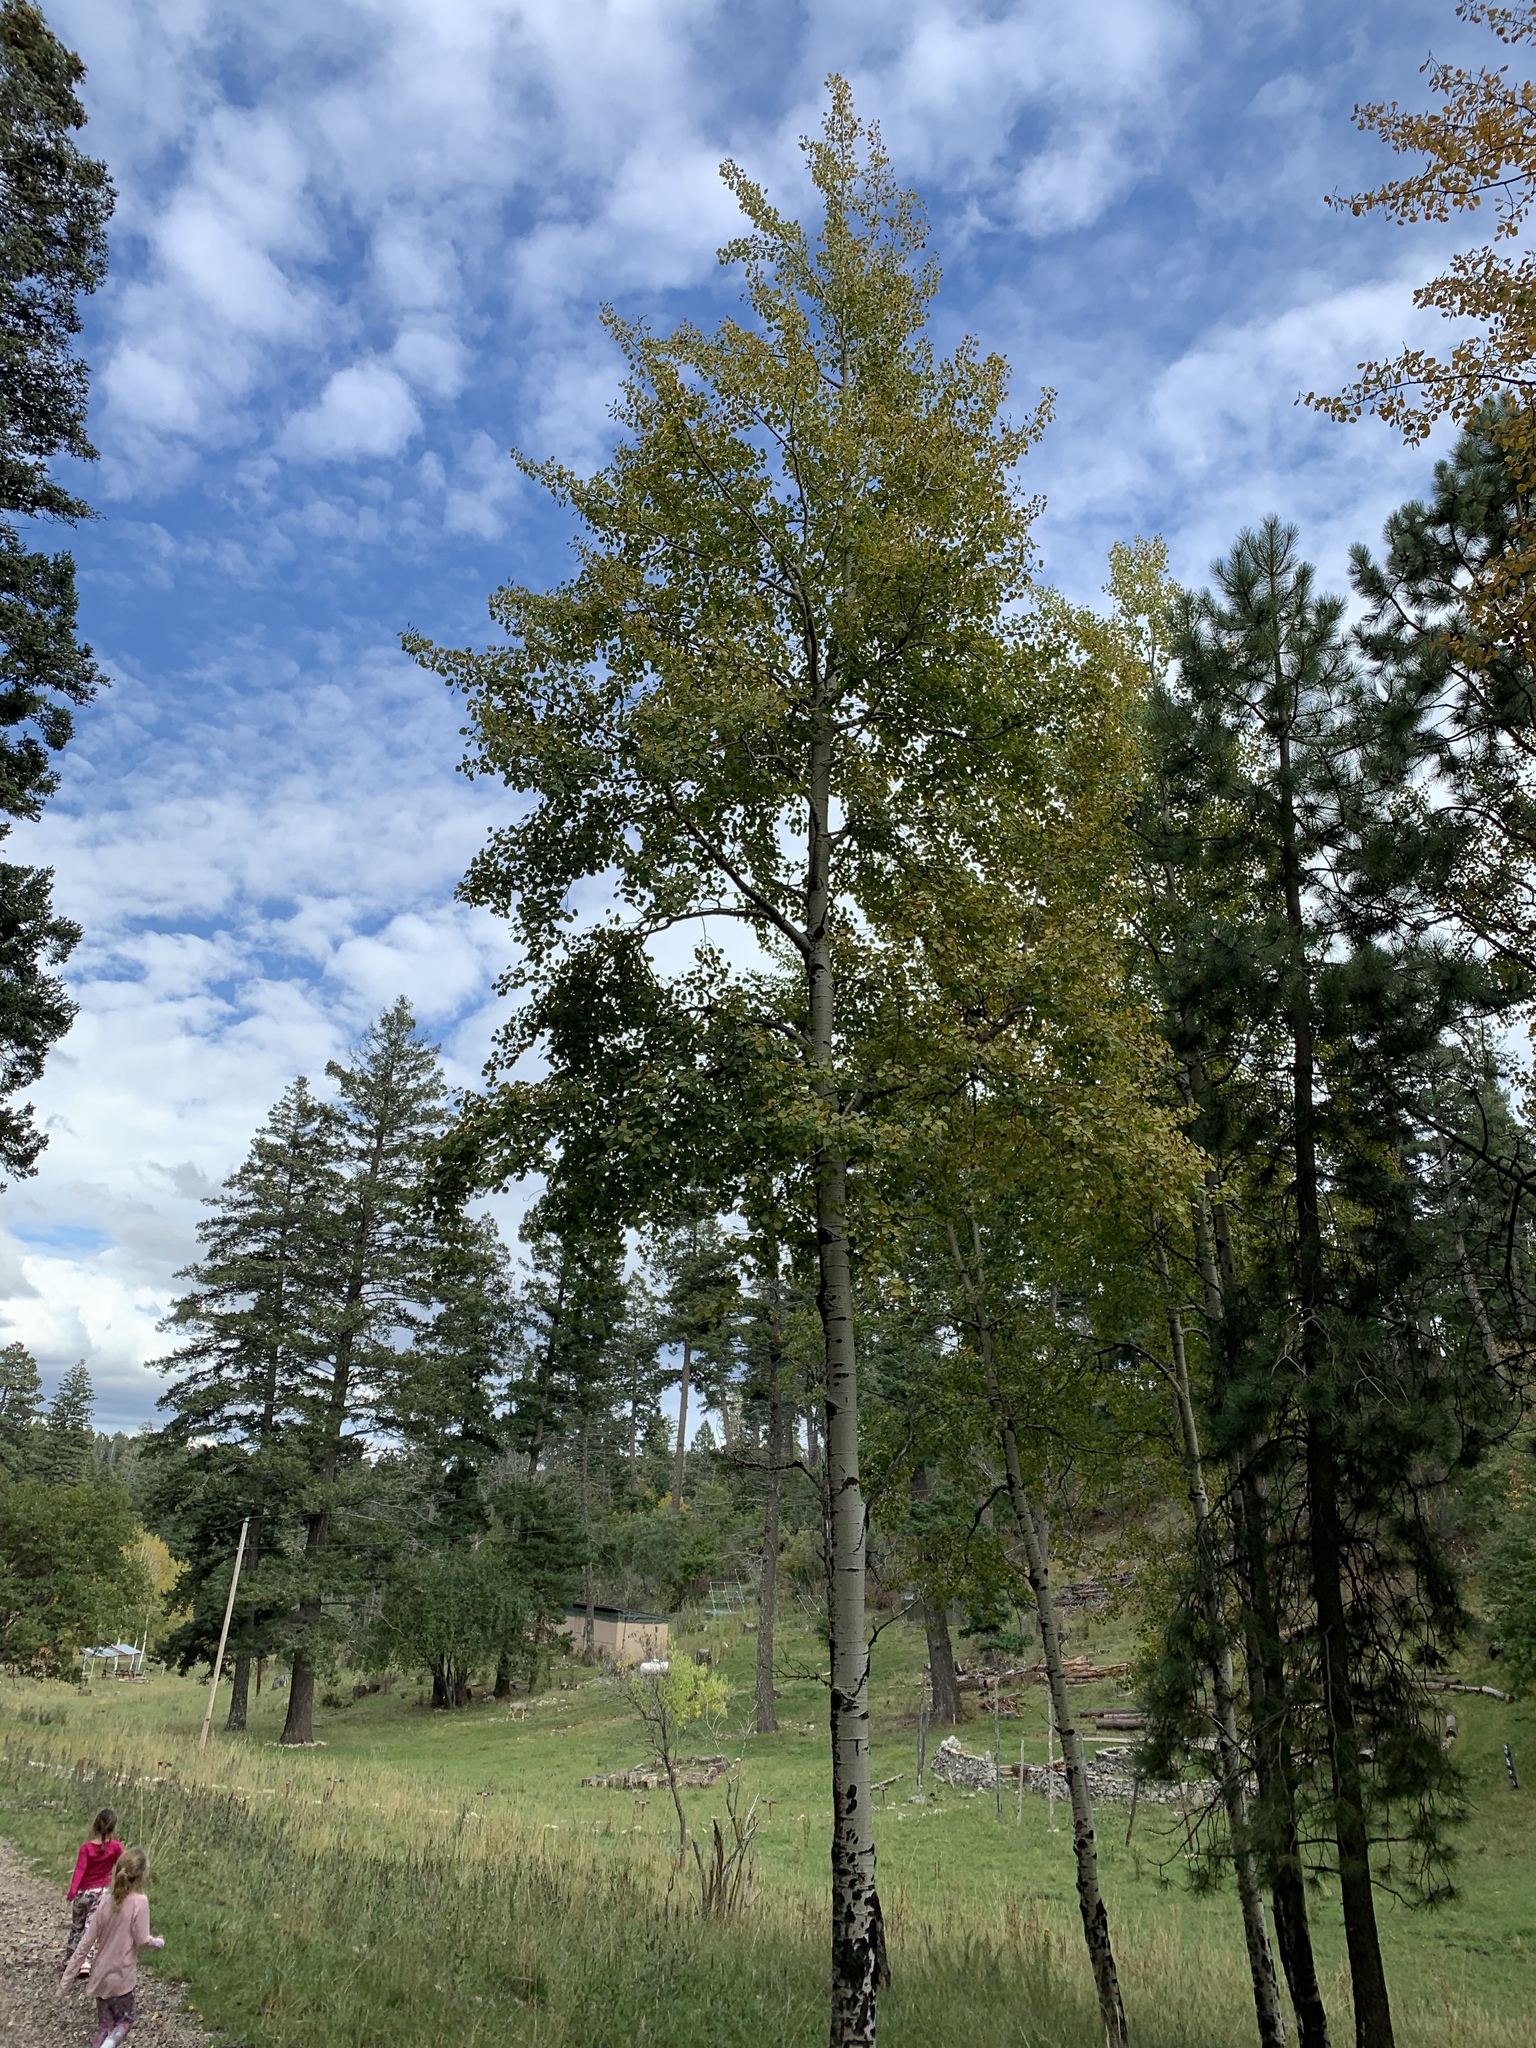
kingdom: Plantae
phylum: Tracheophyta
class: Magnoliopsida
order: Malpighiales
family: Salicaceae
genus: Populus
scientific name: Populus tremuloides
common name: Quaking aspen
